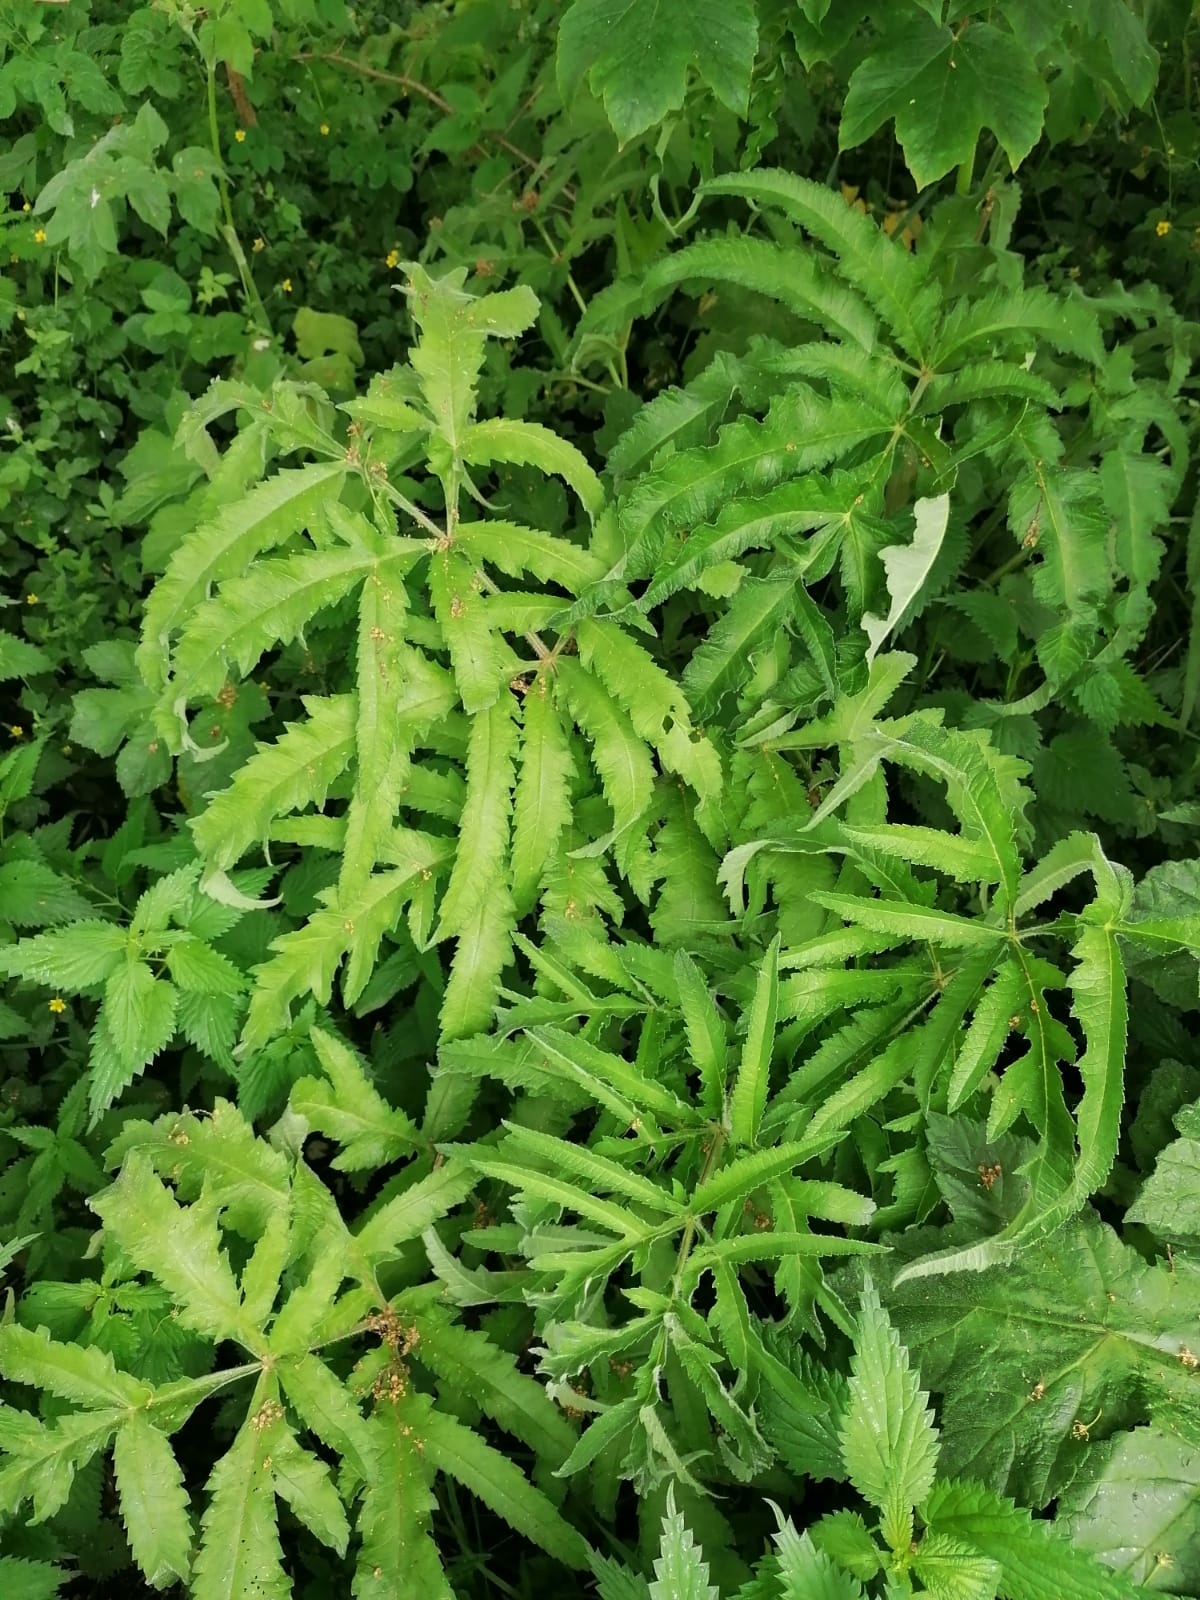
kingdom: Plantae
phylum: Tracheophyta
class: Magnoliopsida
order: Apiales
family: Apiaceae
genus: Heracleum
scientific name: Heracleum sphondylium
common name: Hogweed
